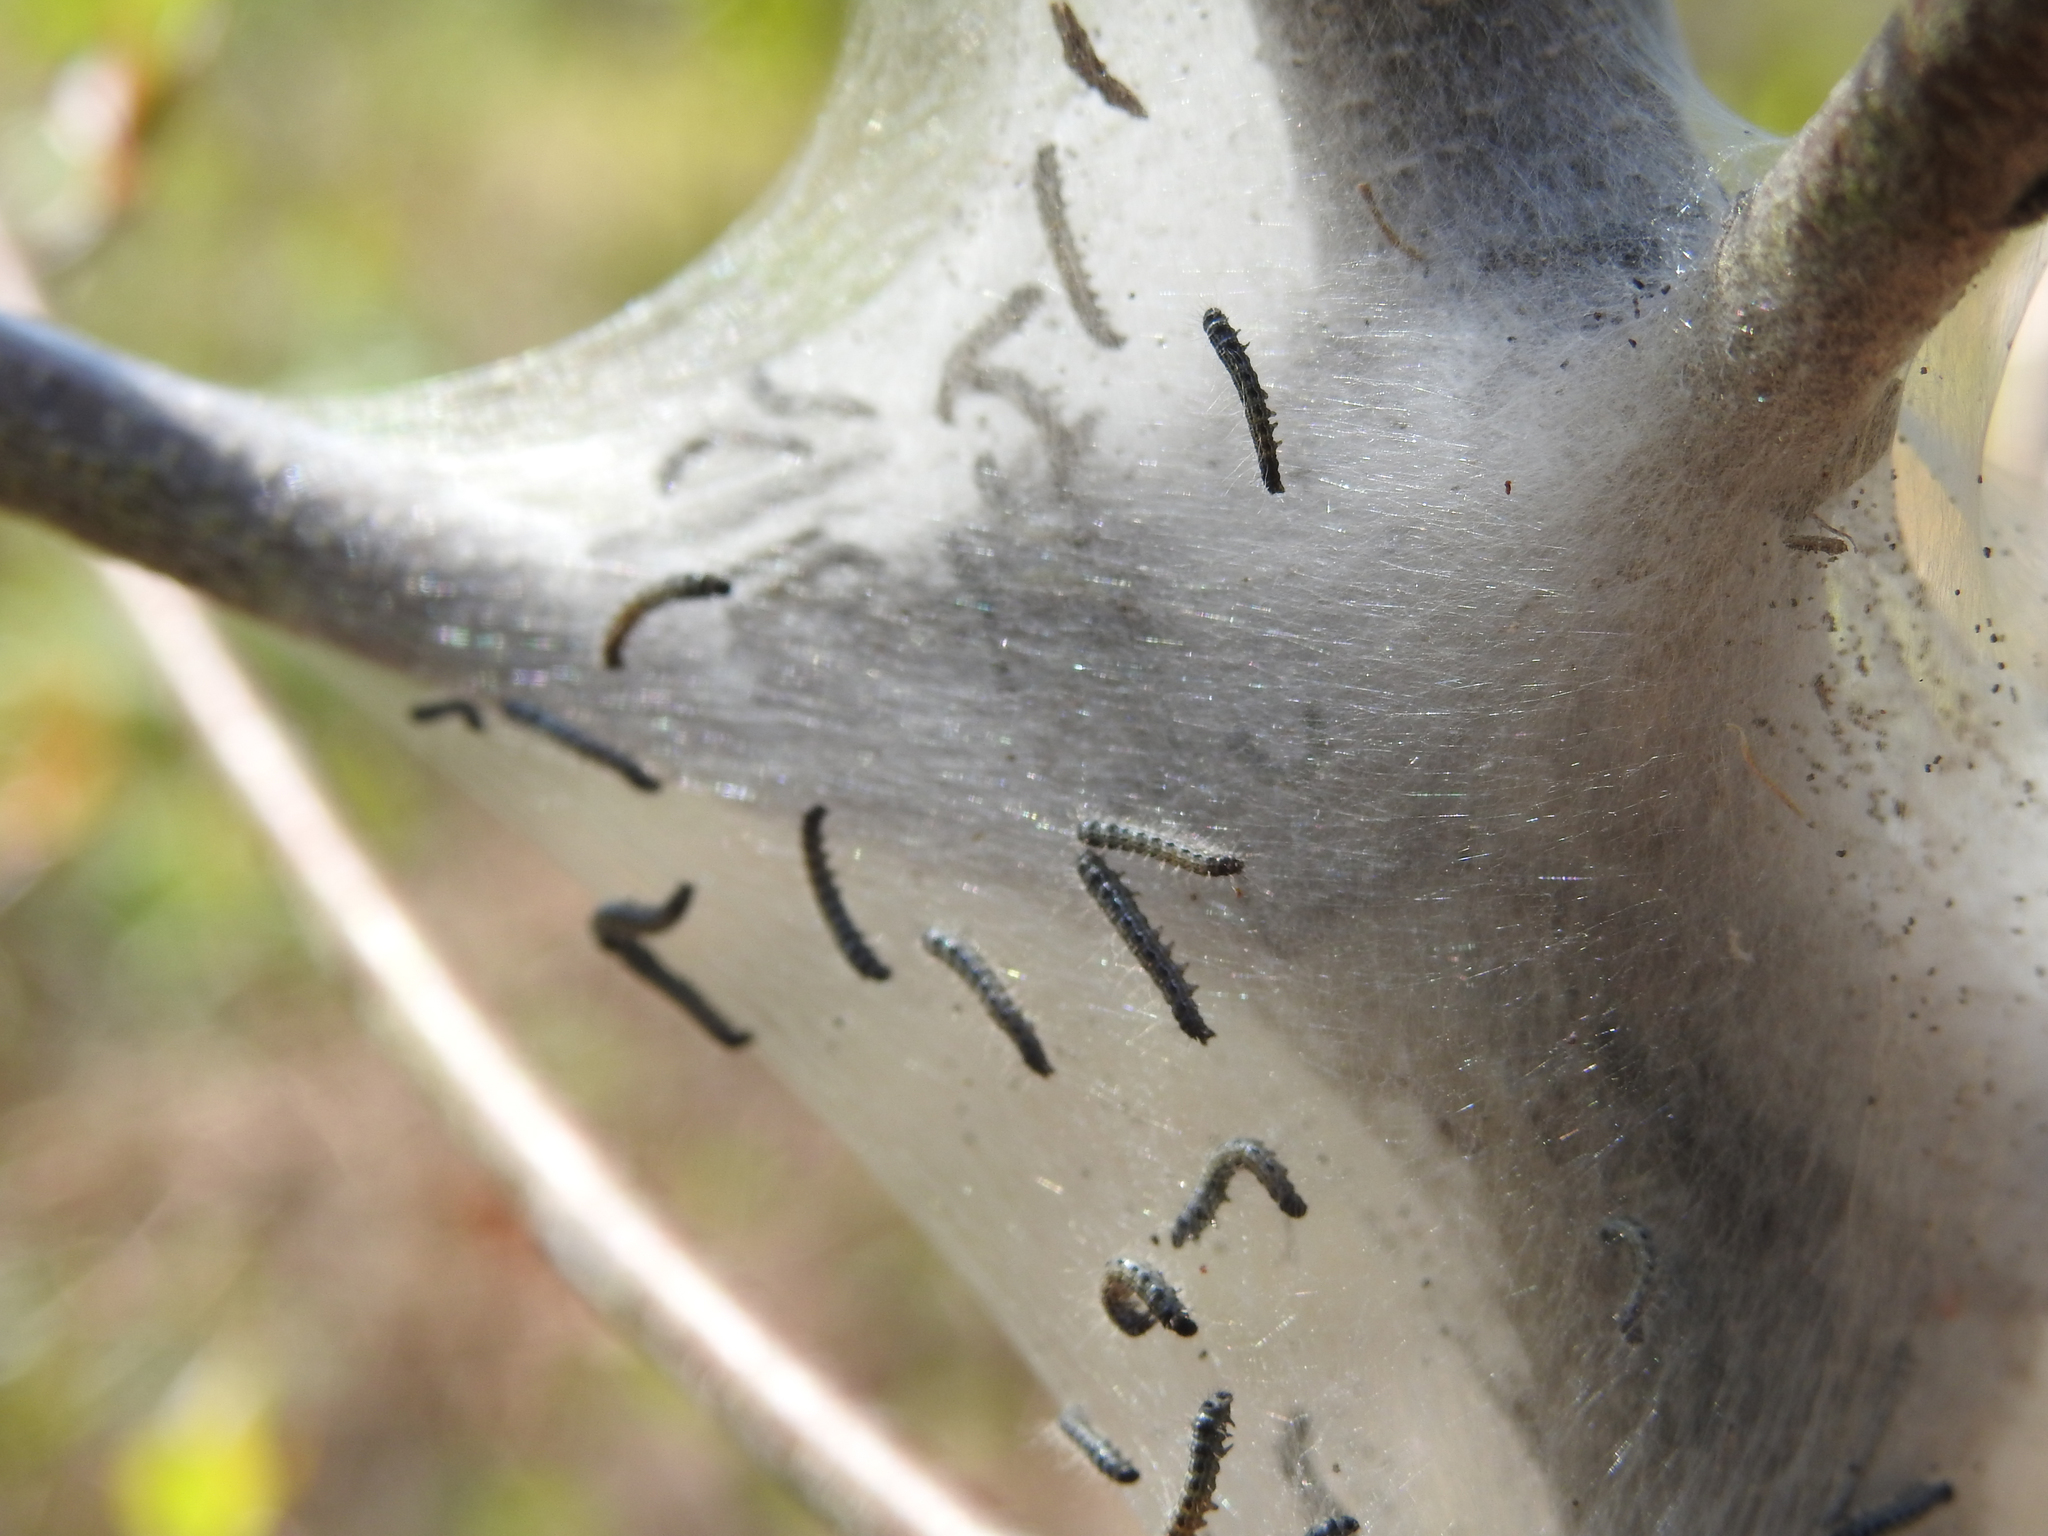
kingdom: Animalia
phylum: Arthropoda
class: Insecta
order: Lepidoptera
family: Lasiocampidae
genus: Malacosoma
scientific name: Malacosoma americana
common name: Eastern tent caterpillar moth
